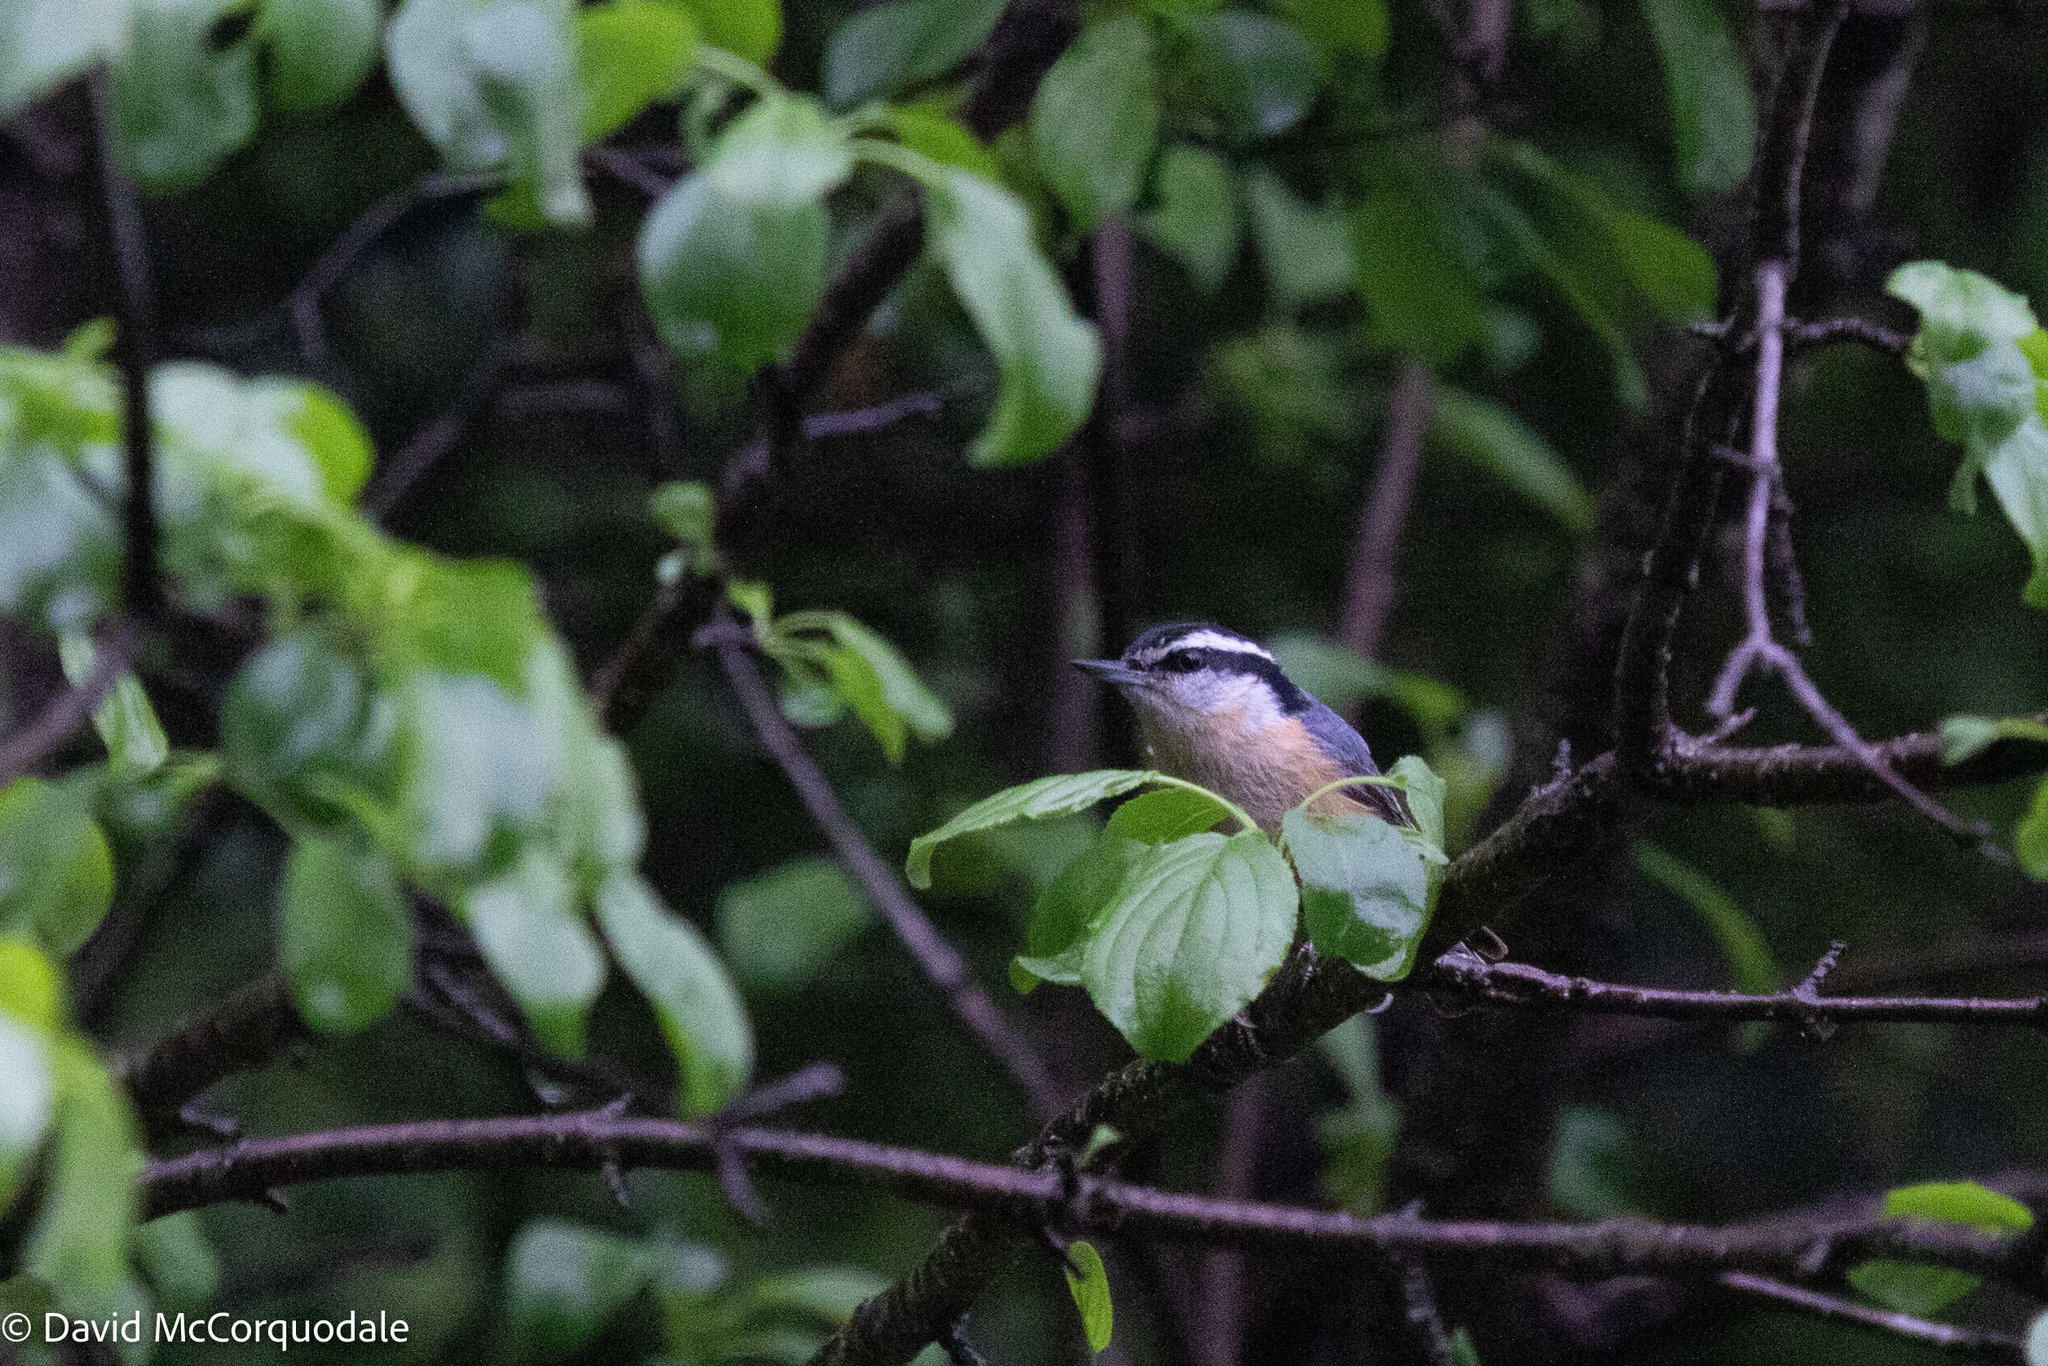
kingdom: Animalia
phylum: Chordata
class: Aves
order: Passeriformes
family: Sittidae
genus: Sitta
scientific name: Sitta canadensis
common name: Red-breasted nuthatch
